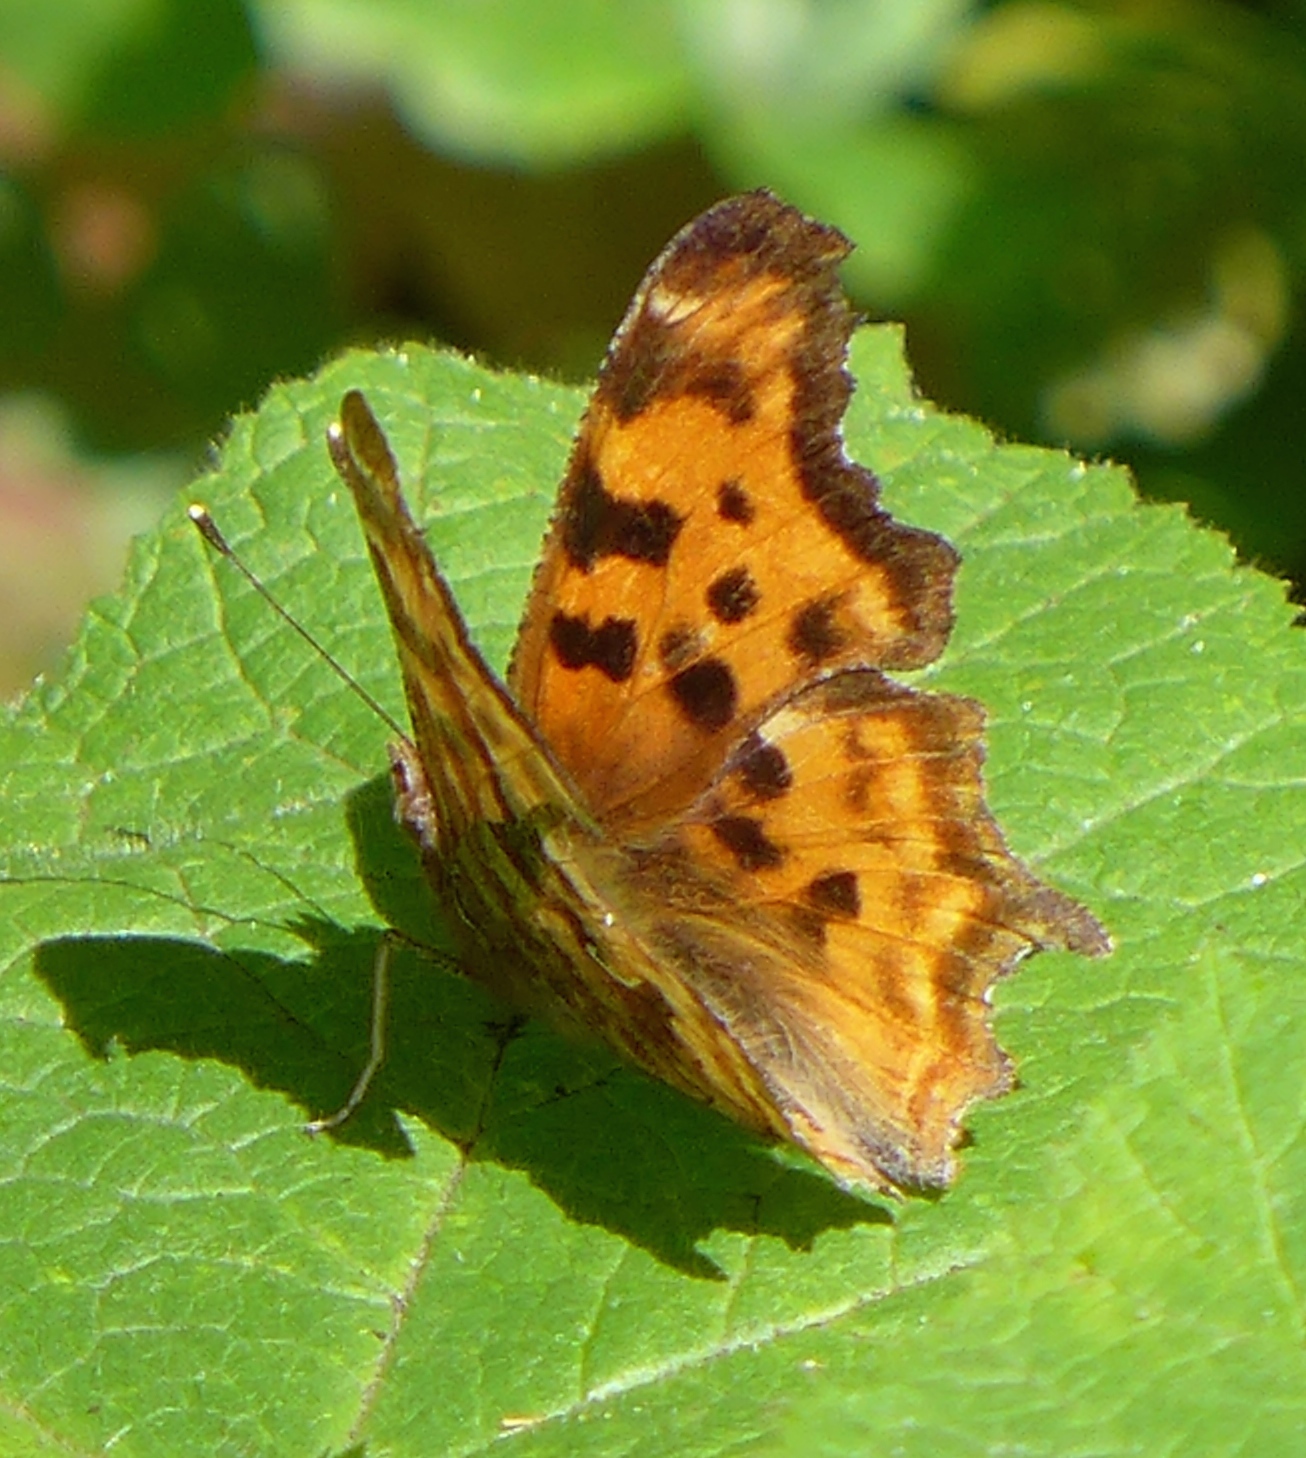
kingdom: Animalia
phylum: Arthropoda
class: Insecta
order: Lepidoptera
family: Nymphalidae
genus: Polygonia
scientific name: Polygonia satyrus
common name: Satyr angle wing
